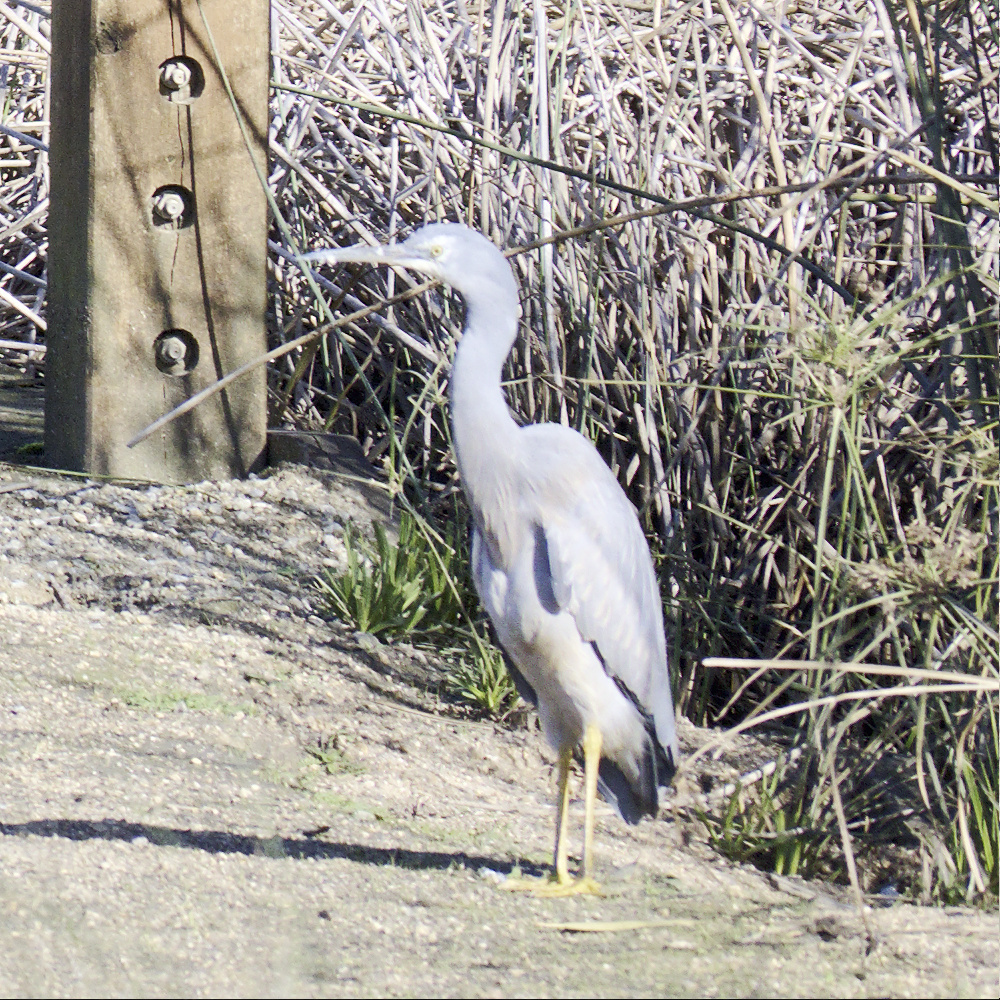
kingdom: Animalia
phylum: Chordata
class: Aves
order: Pelecaniformes
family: Ardeidae
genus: Egretta
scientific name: Egretta novaehollandiae
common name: White-faced heron
